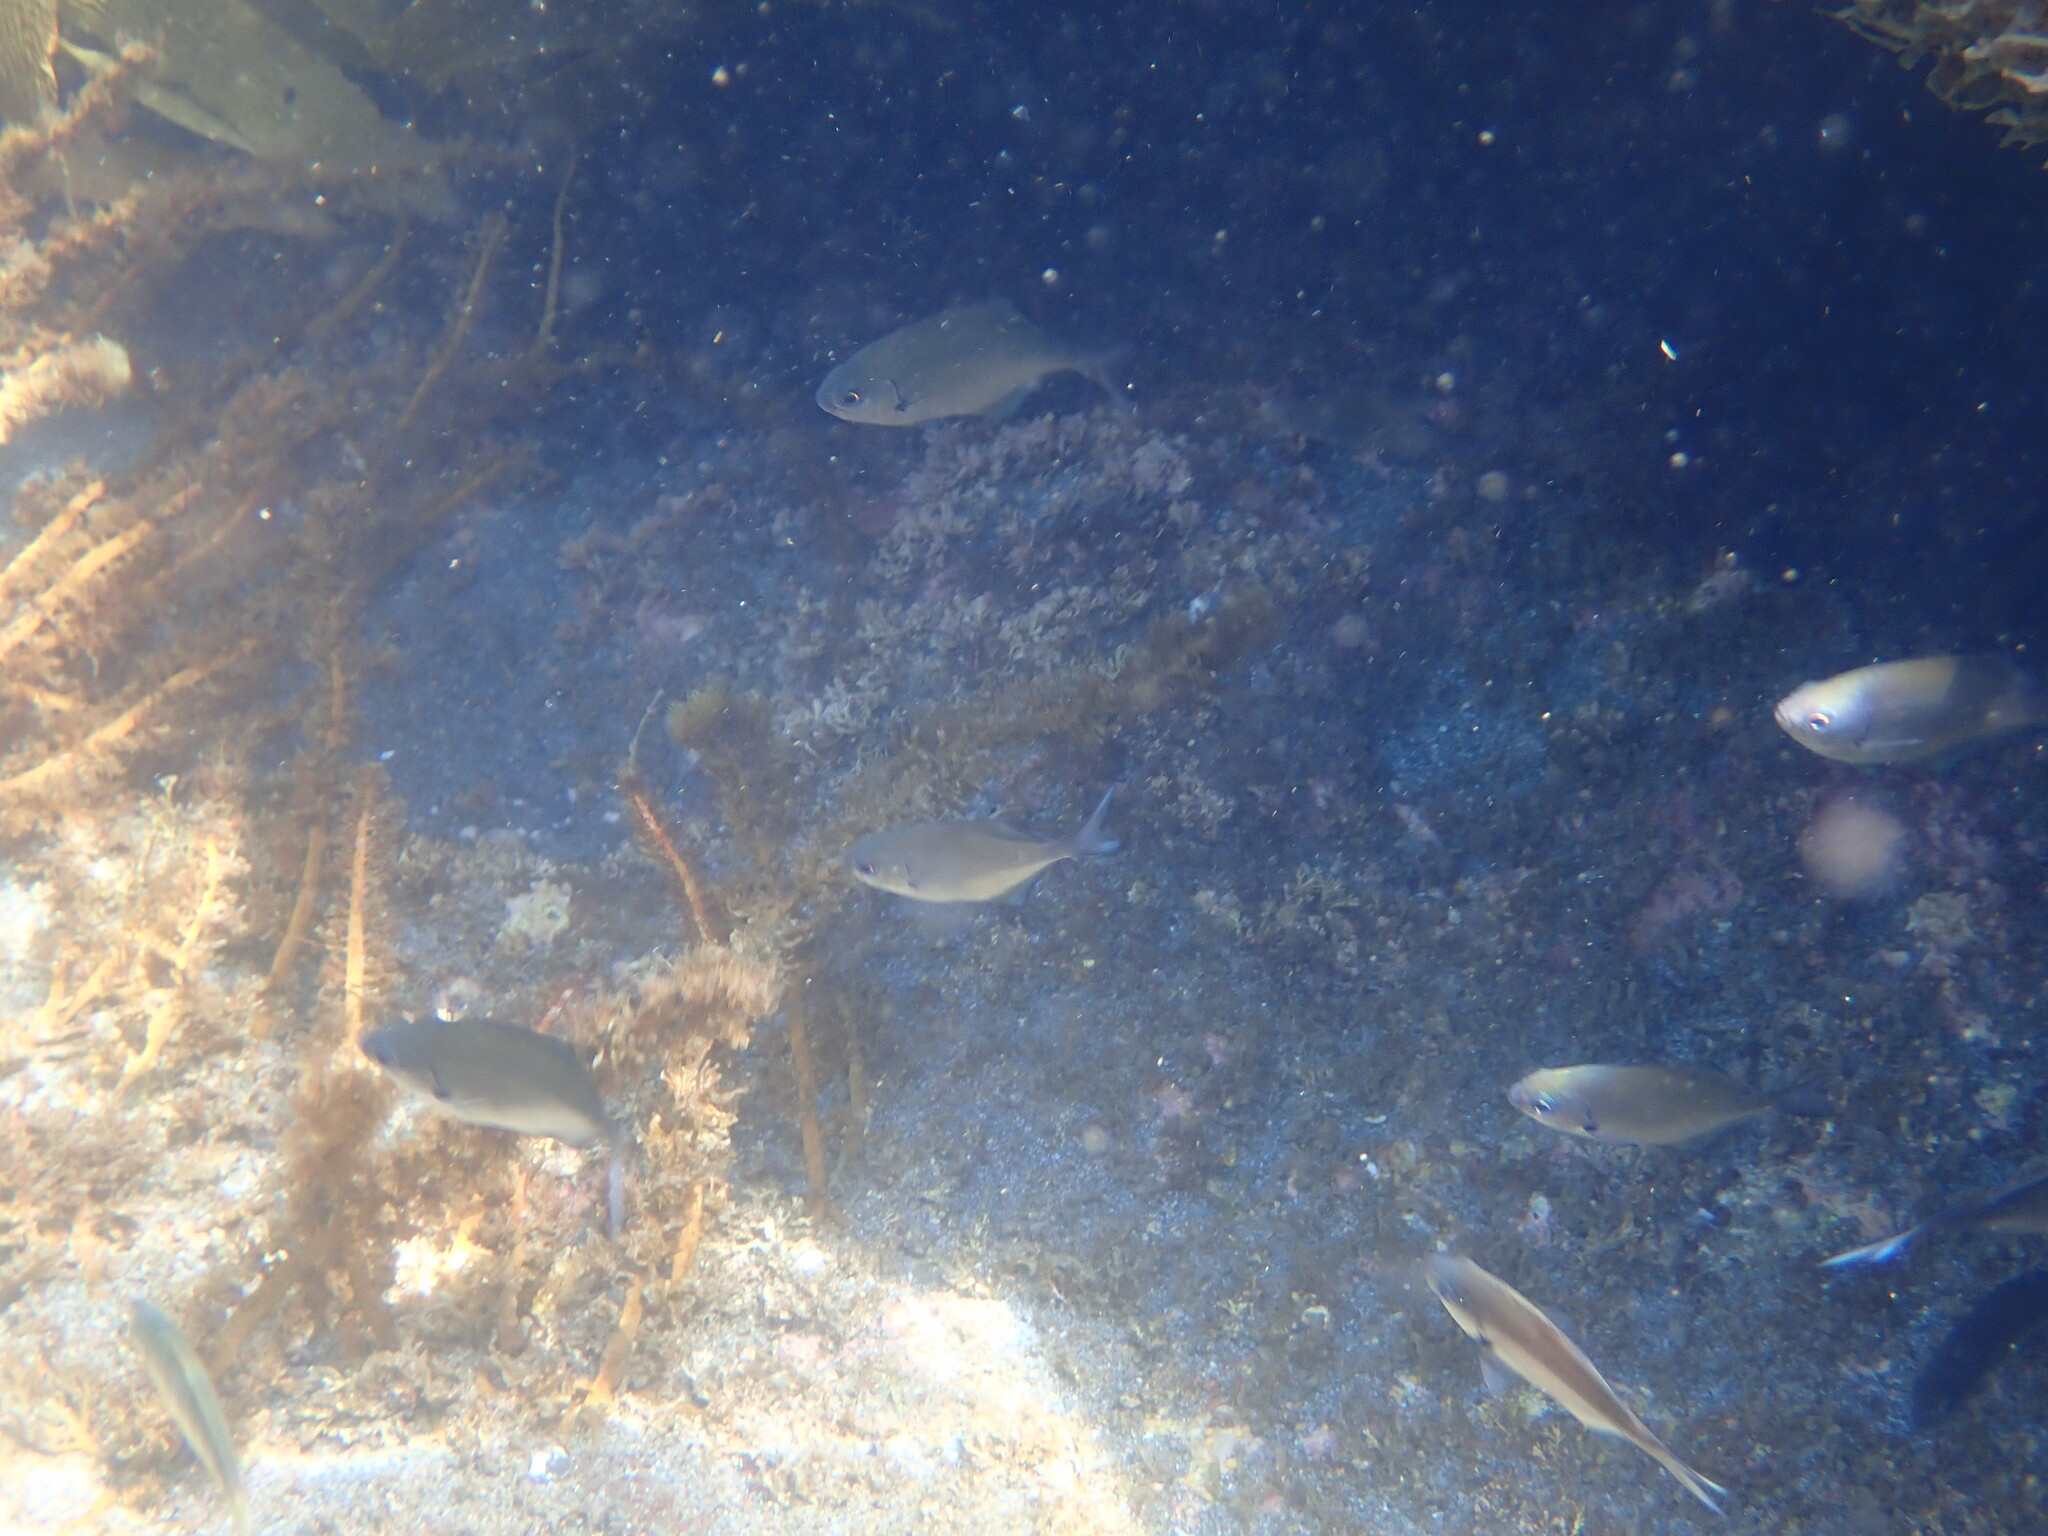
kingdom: Animalia
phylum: Chordata
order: Perciformes
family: Kyphosidae
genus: Scorpis
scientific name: Scorpis lineolata
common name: Sweep
